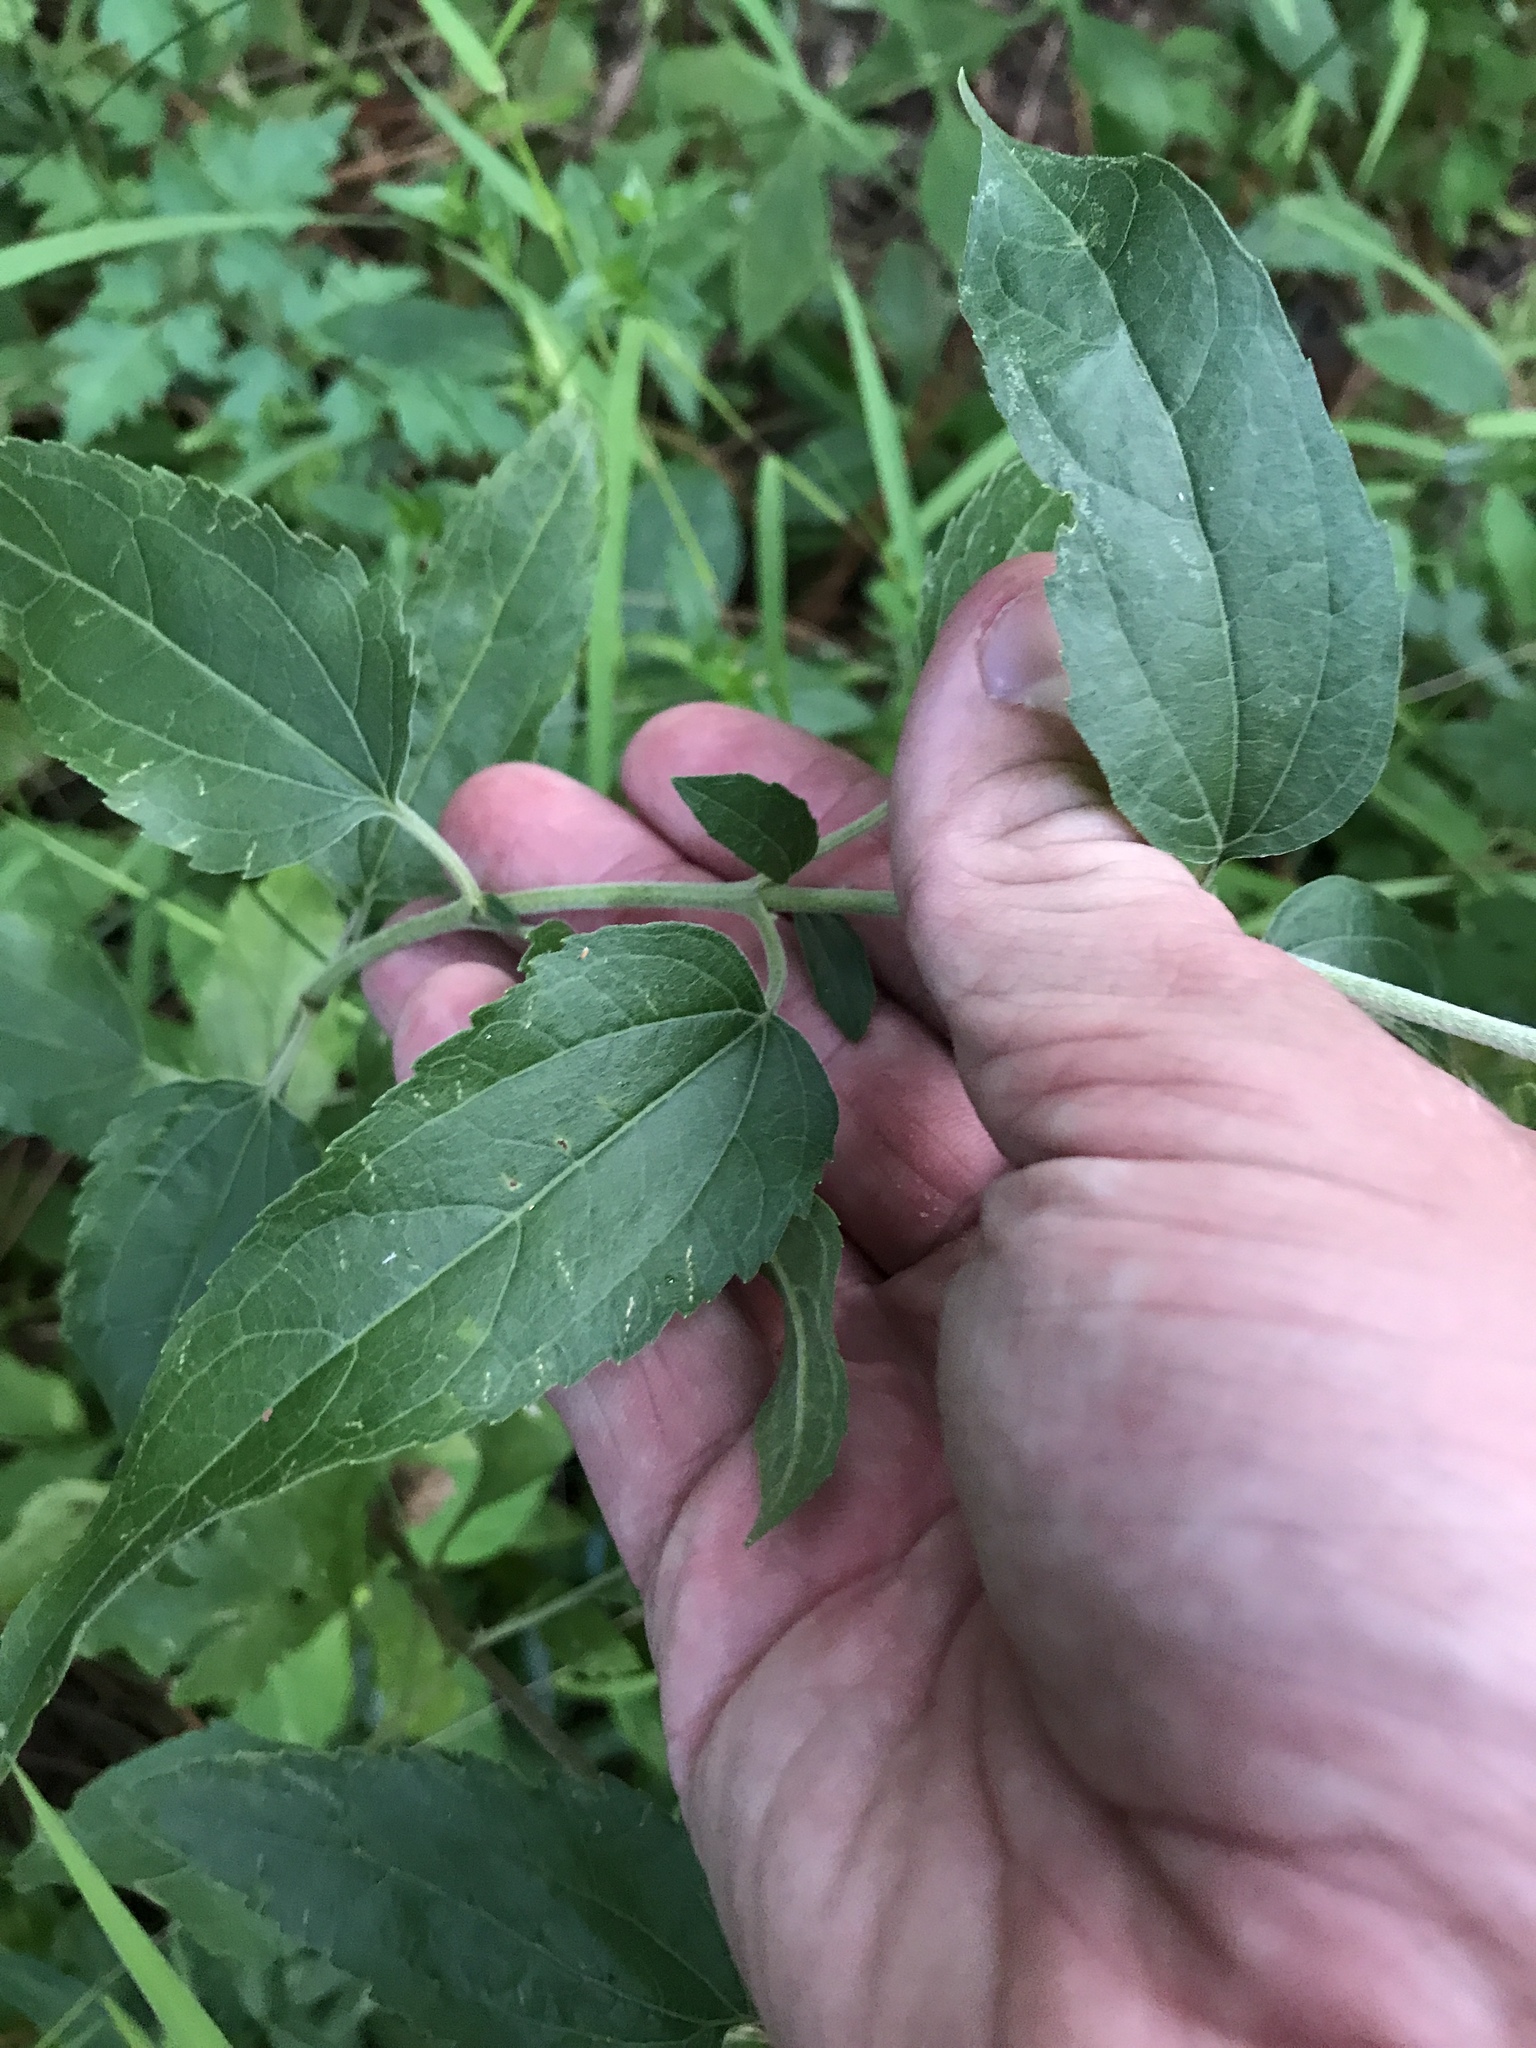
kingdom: Plantae
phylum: Tracheophyta
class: Magnoliopsida
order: Asterales
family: Asteraceae
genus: Eupatorium
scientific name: Eupatorium serotinum
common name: Late boneset
